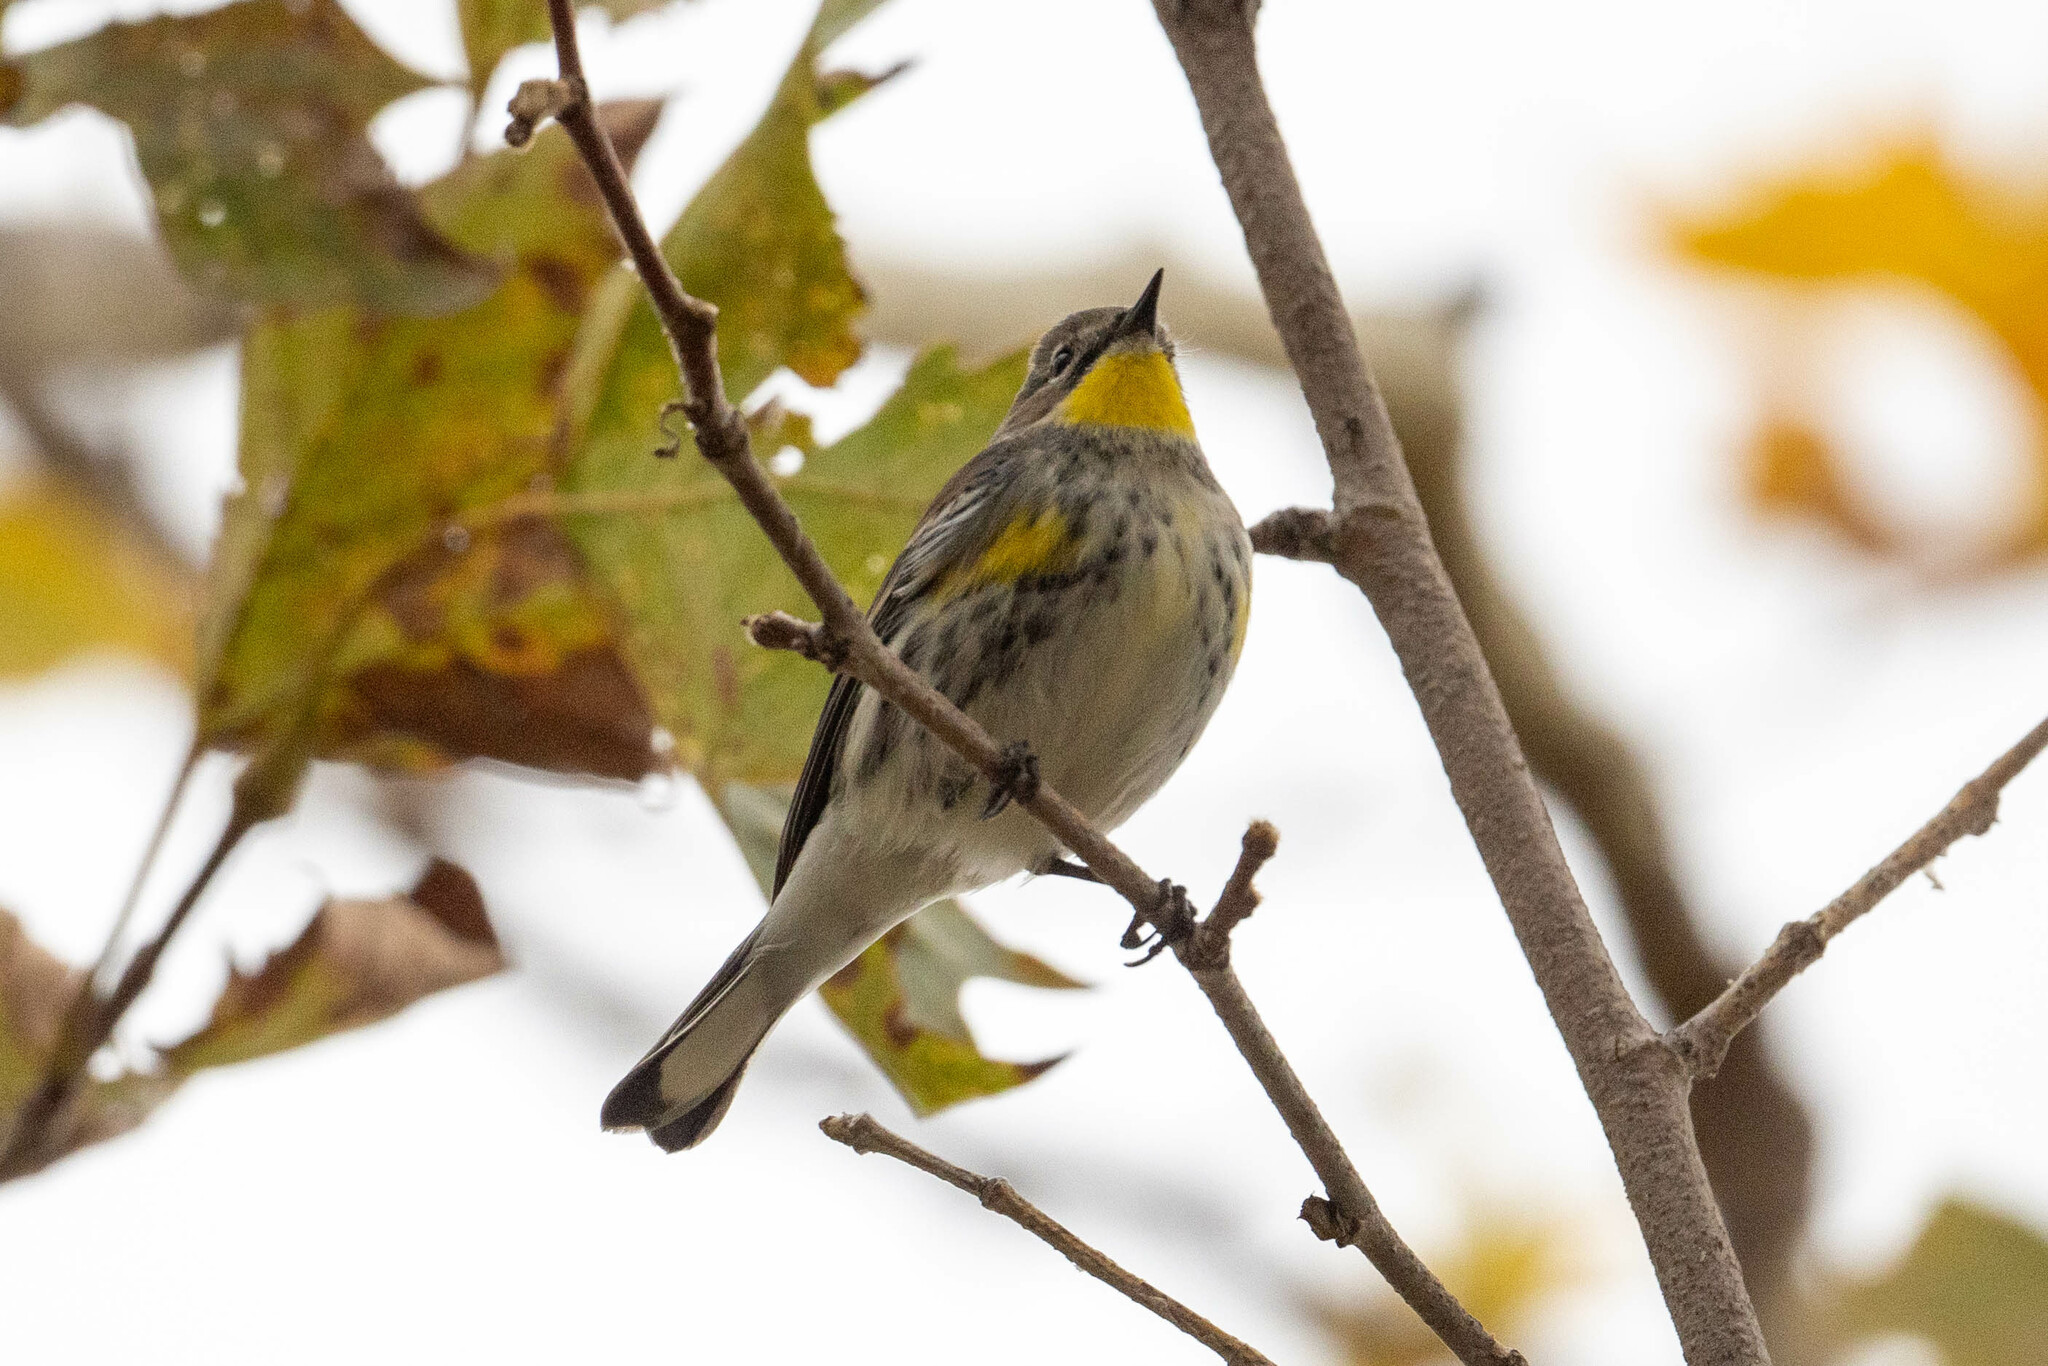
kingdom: Animalia
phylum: Chordata
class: Aves
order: Passeriformes
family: Parulidae
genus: Setophaga
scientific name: Setophaga coronata
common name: Myrtle warbler
